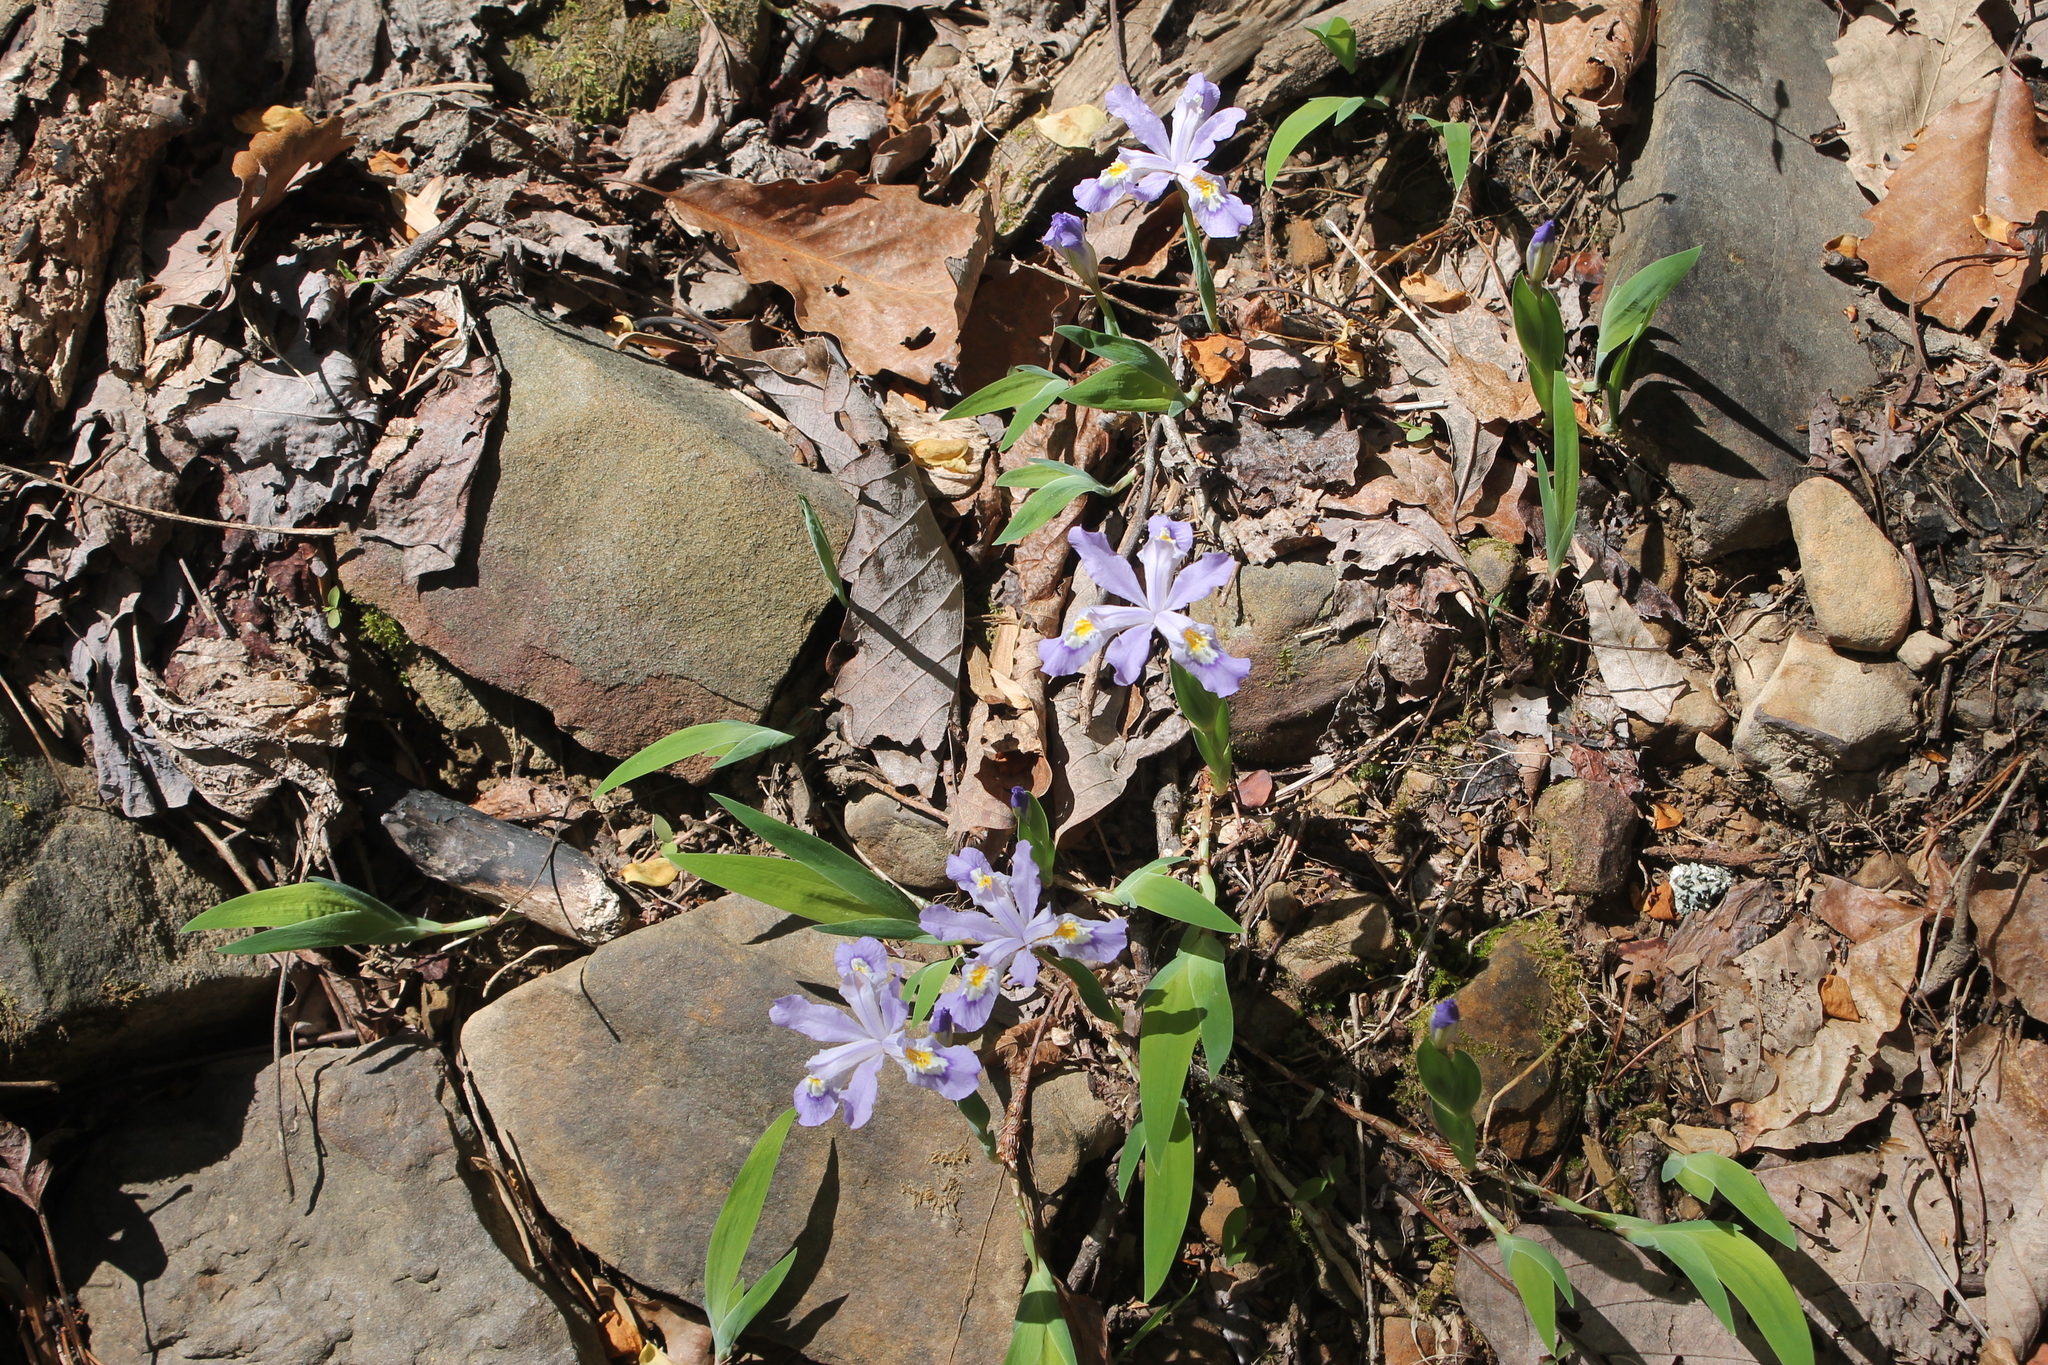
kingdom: Plantae
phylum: Tracheophyta
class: Liliopsida
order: Asparagales
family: Iridaceae
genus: Iris
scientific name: Iris cristata
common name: Crested iris
